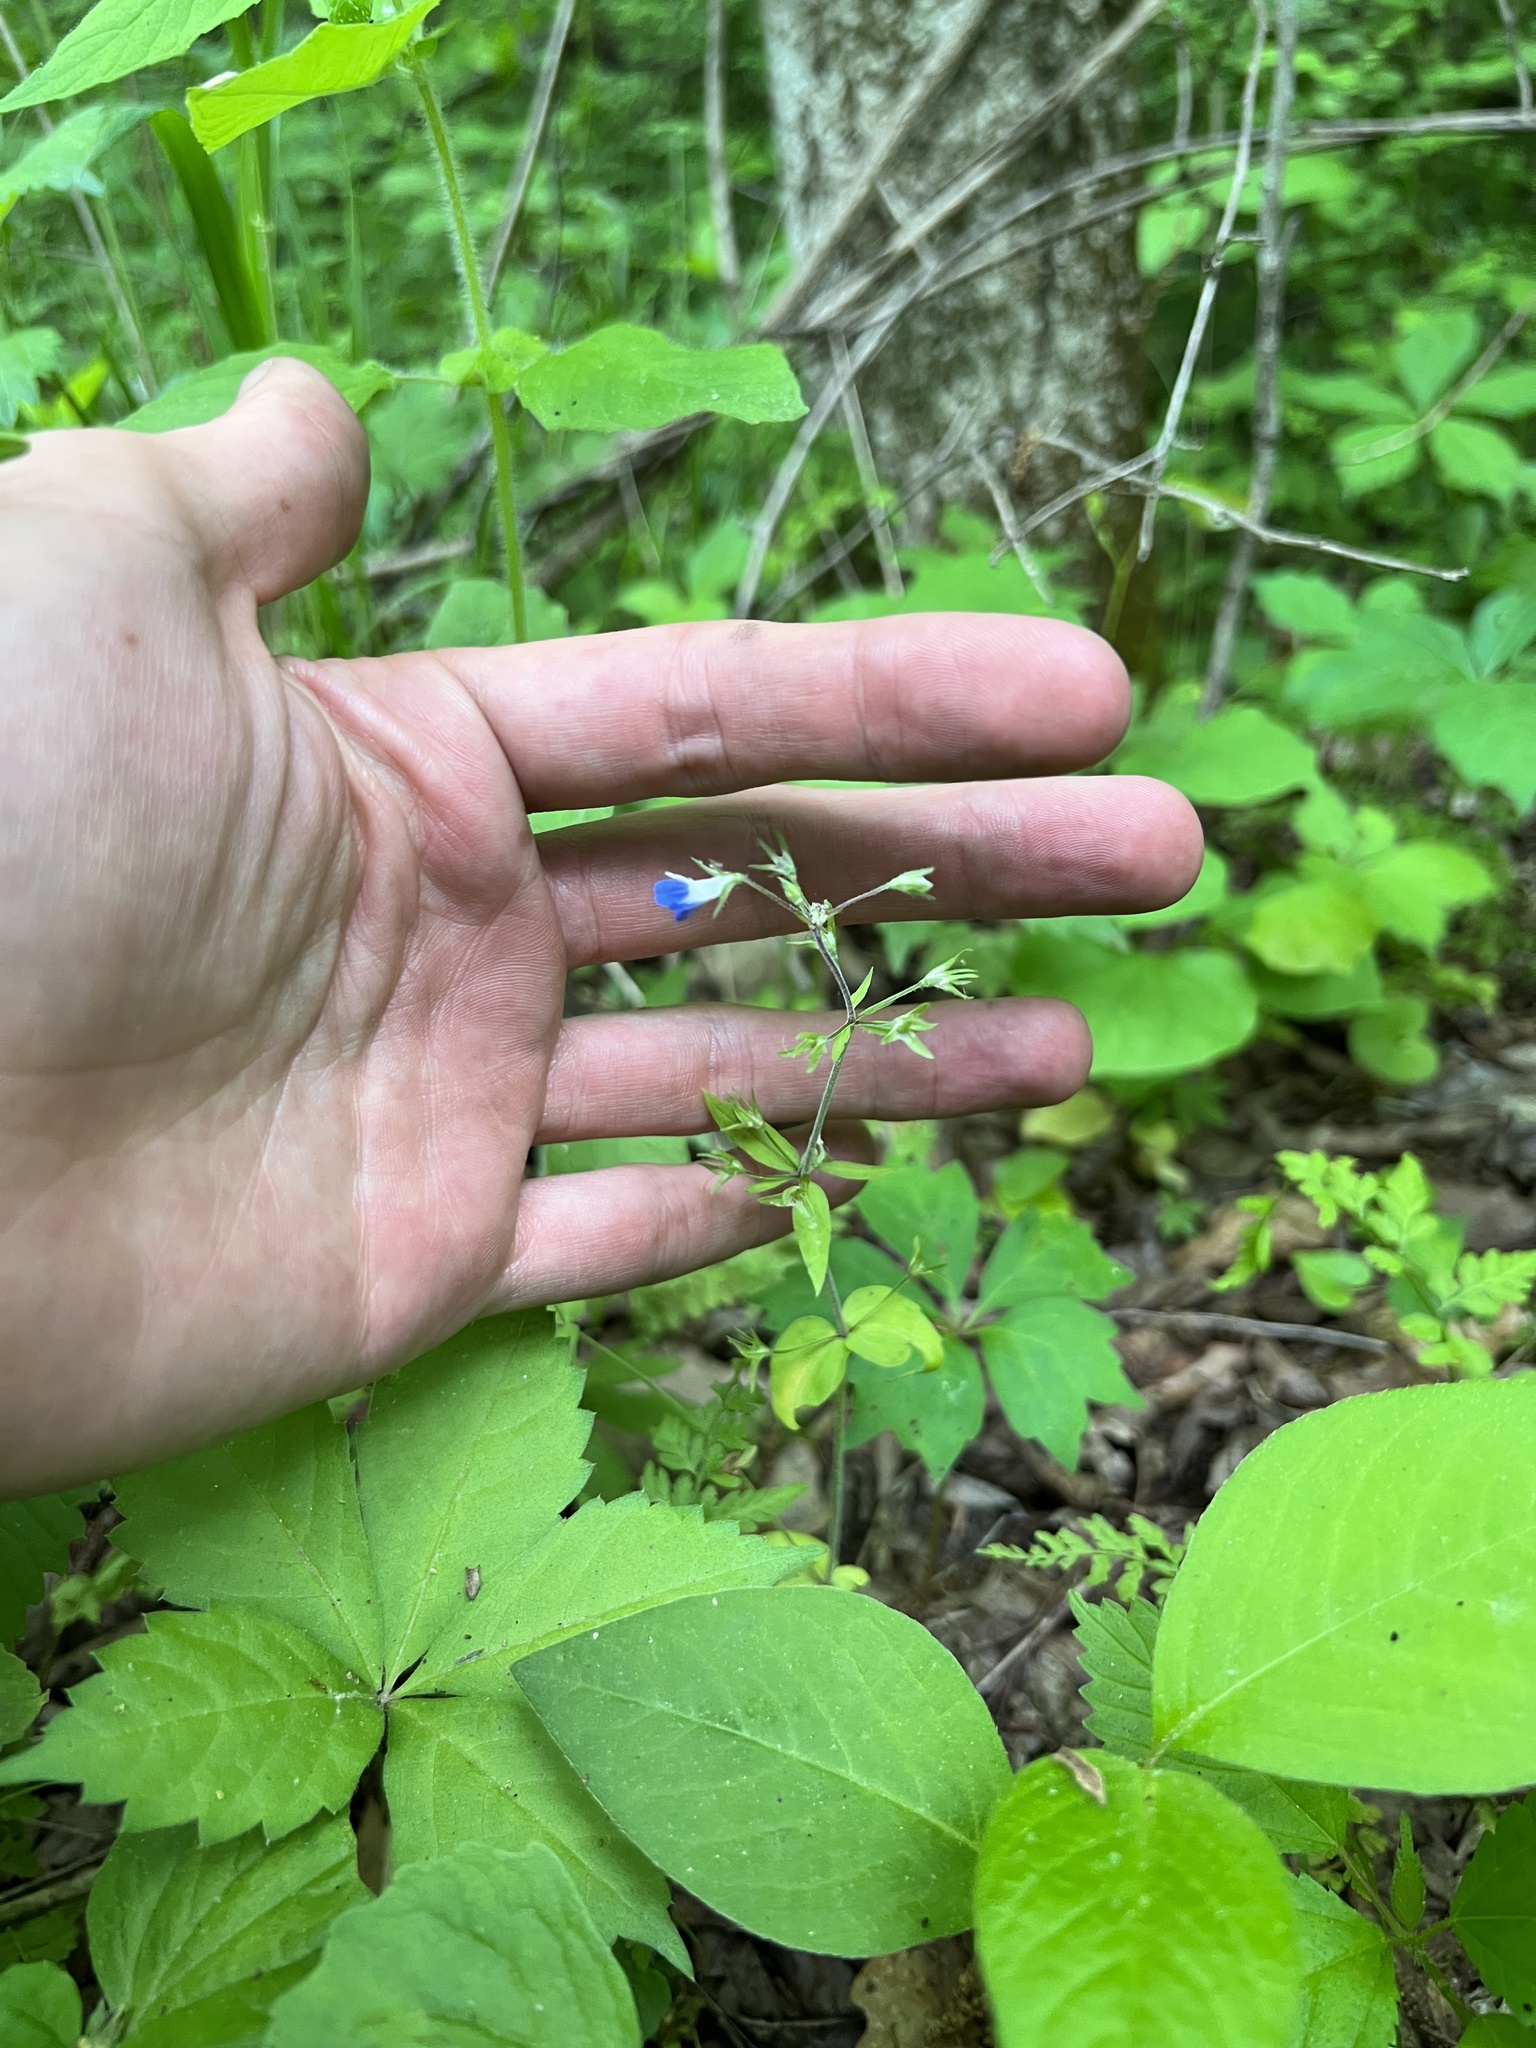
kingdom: Plantae
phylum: Tracheophyta
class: Magnoliopsida
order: Lamiales
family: Plantaginaceae
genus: Collinsia
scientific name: Collinsia verna
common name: Broad-leaved collinsia
